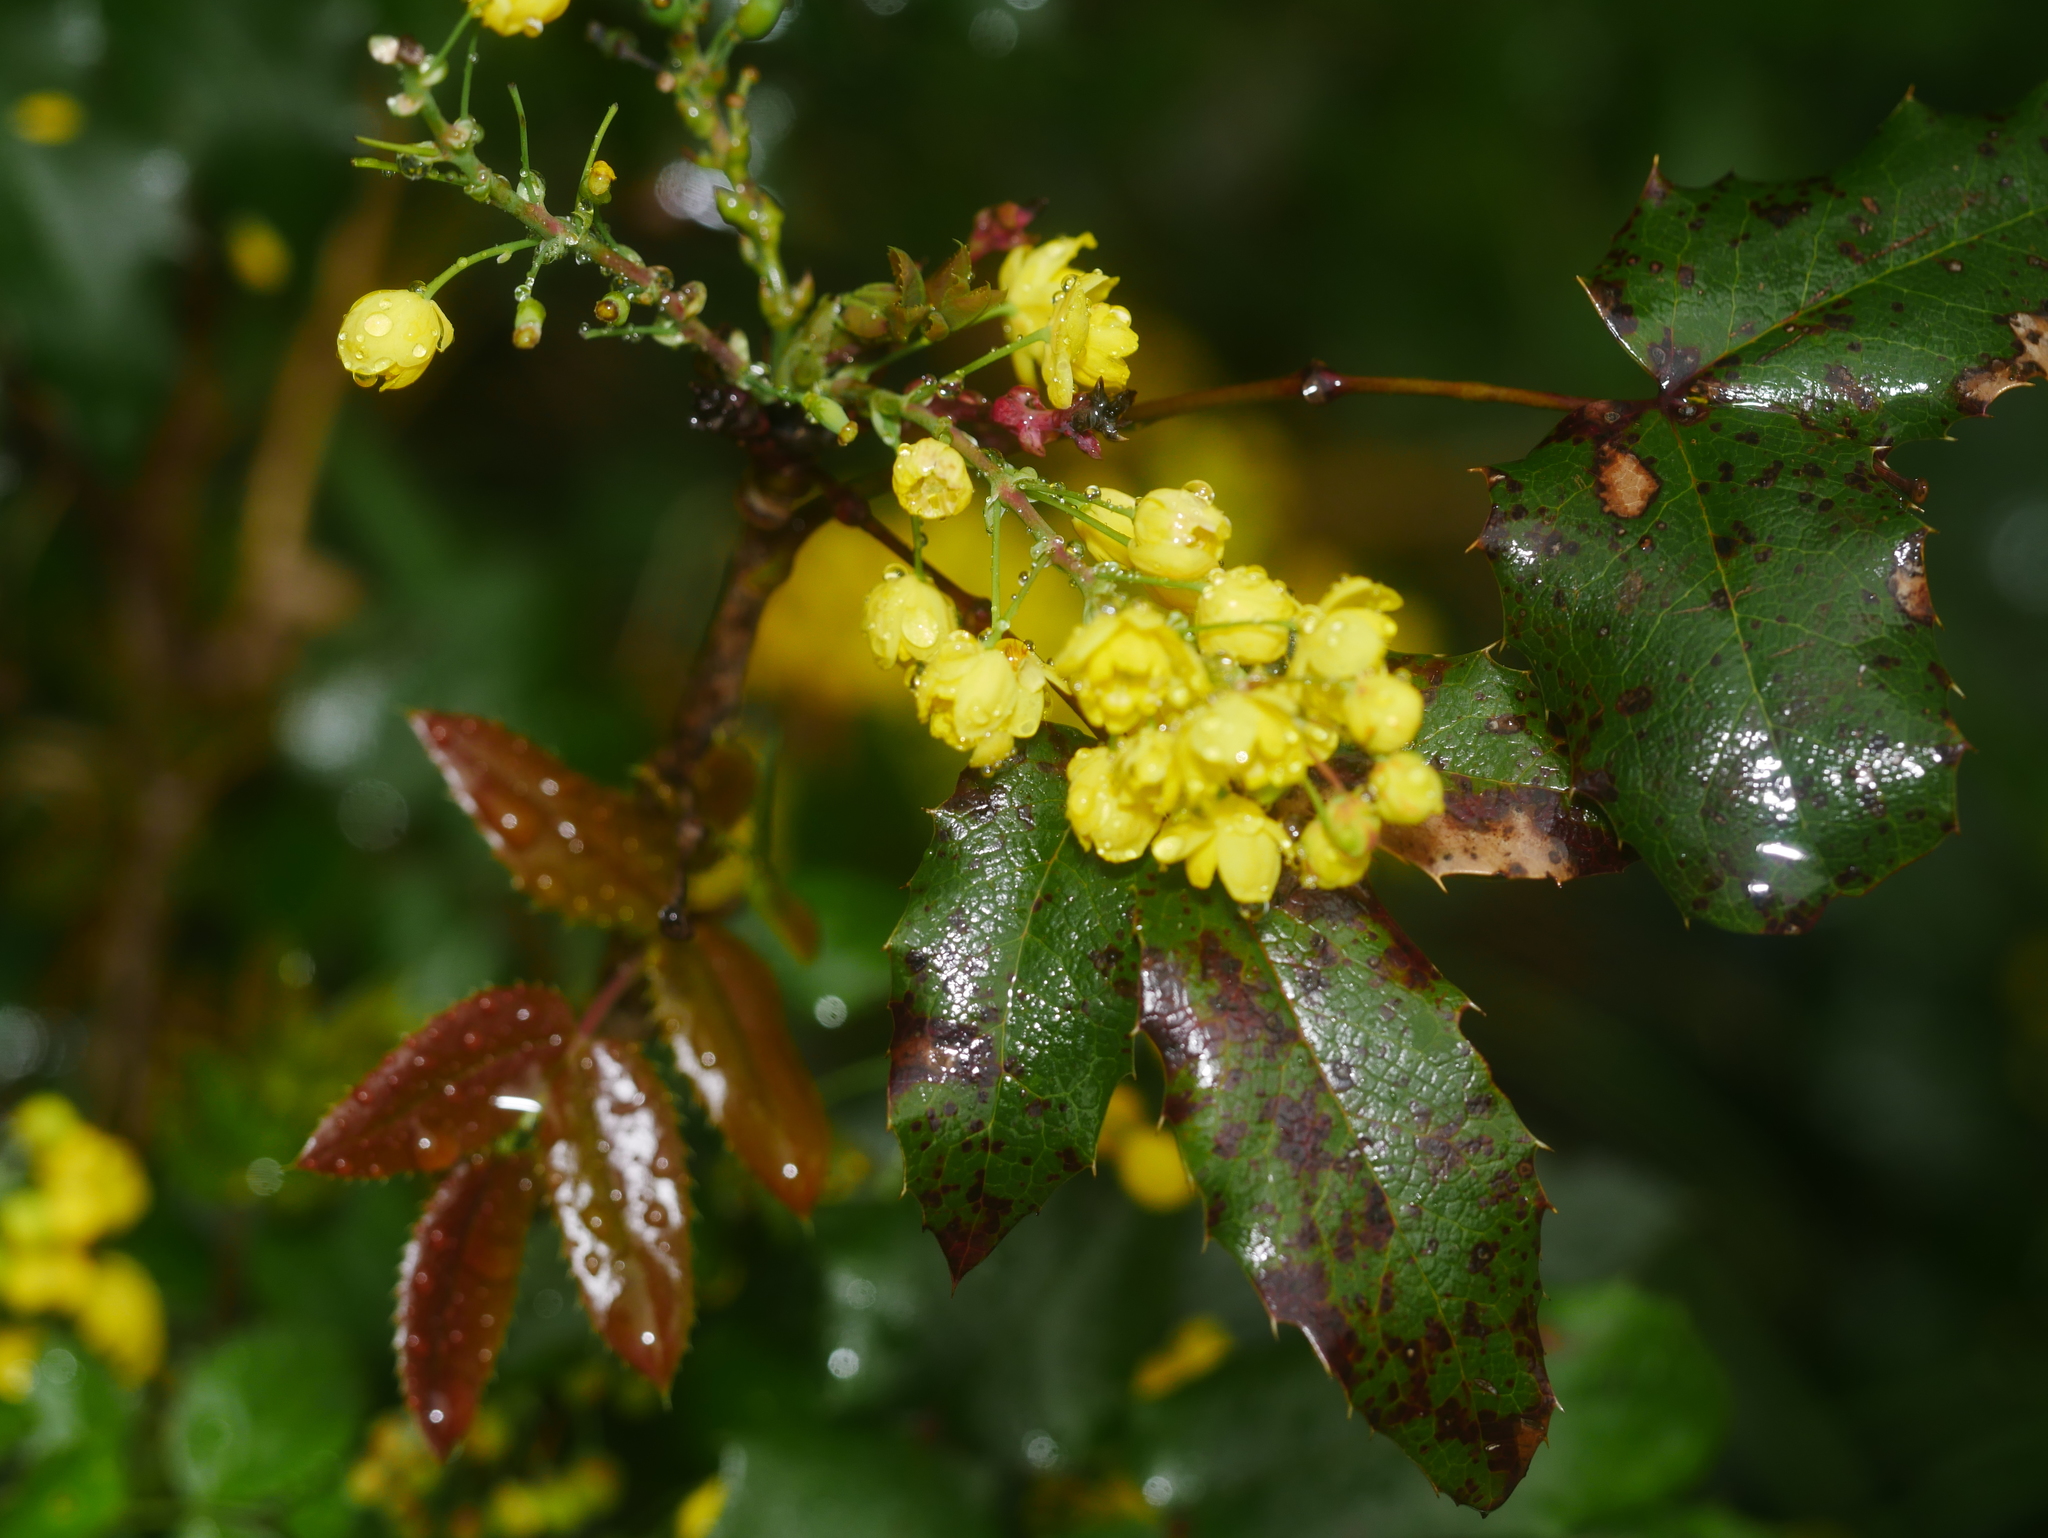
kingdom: Plantae
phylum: Tracheophyta
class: Magnoliopsida
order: Ranunculales
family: Berberidaceae
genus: Mahonia
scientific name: Mahonia aquifolium
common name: Oregon-grape
